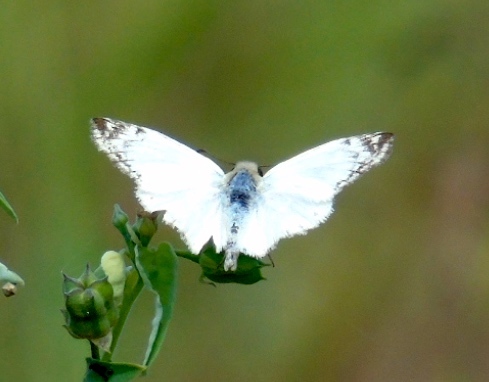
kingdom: Animalia
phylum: Arthropoda
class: Insecta
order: Lepidoptera
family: Hesperiidae
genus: Heliopetes
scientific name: Heliopetes laviana
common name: Laviana white-skipper
